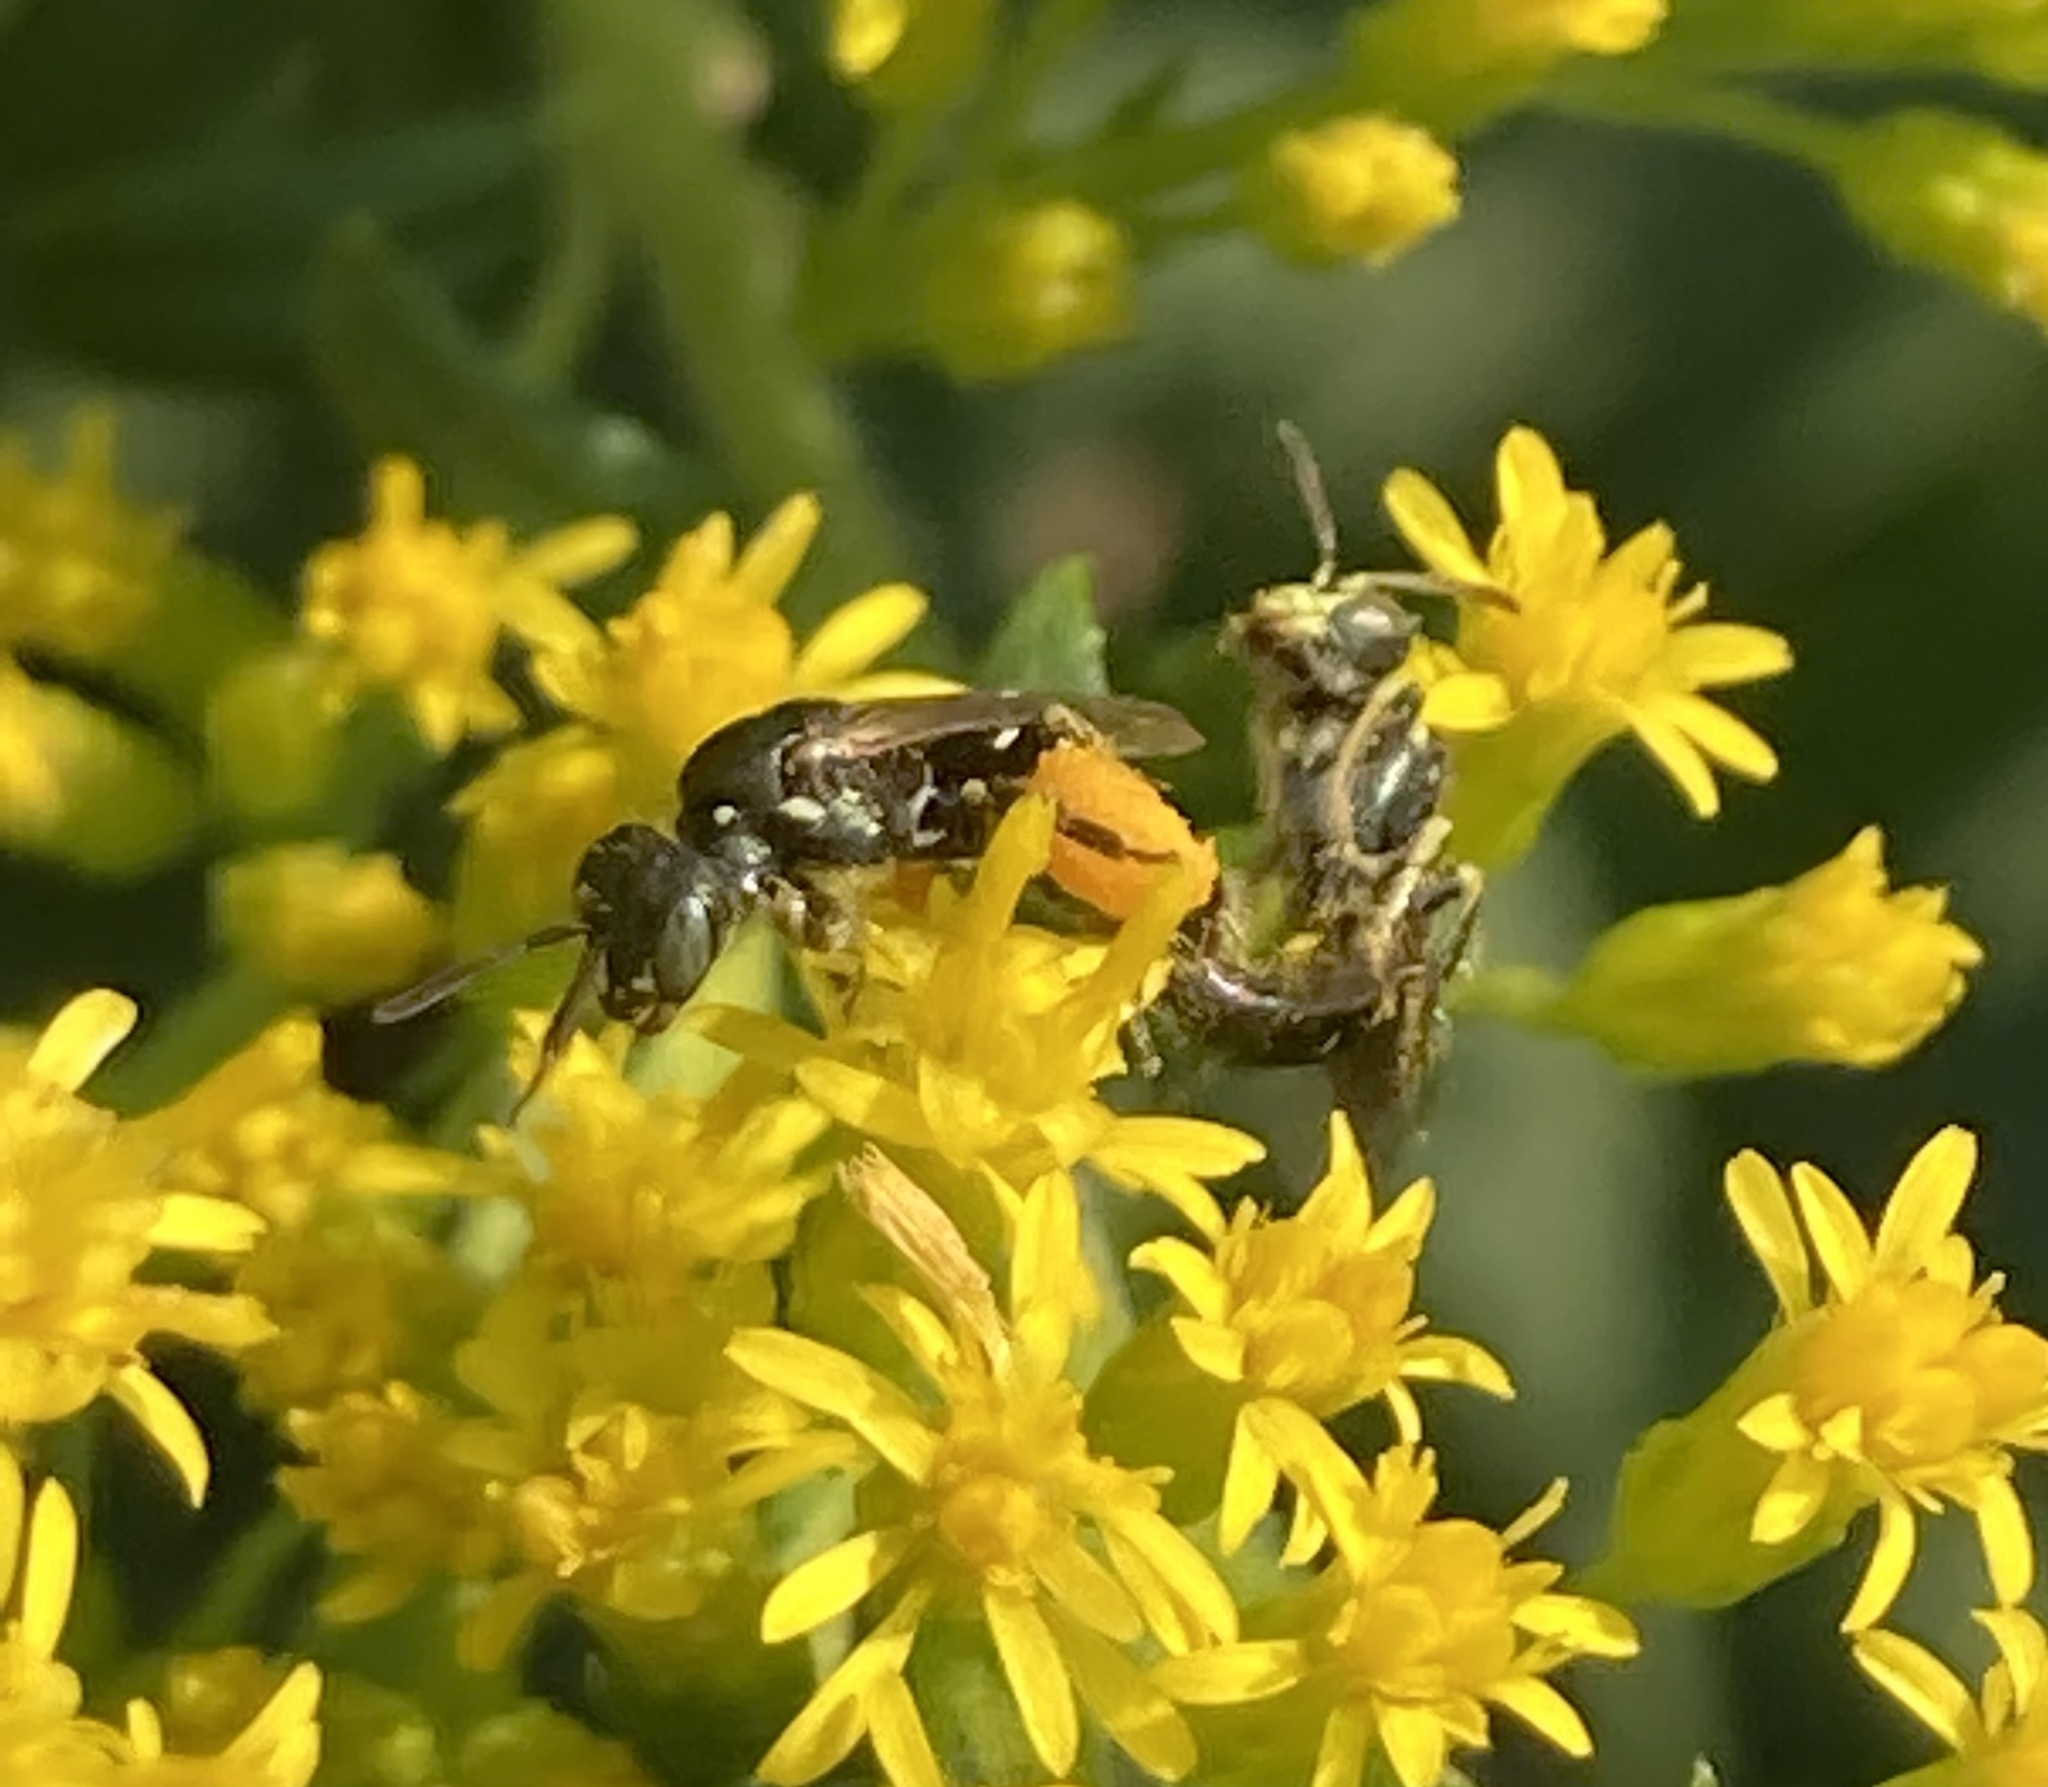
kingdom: Animalia
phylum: Arthropoda
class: Insecta
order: Hymenoptera
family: Andrenidae
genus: Perdita
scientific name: Perdita octomaculata
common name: Eight-spotted miner bee
